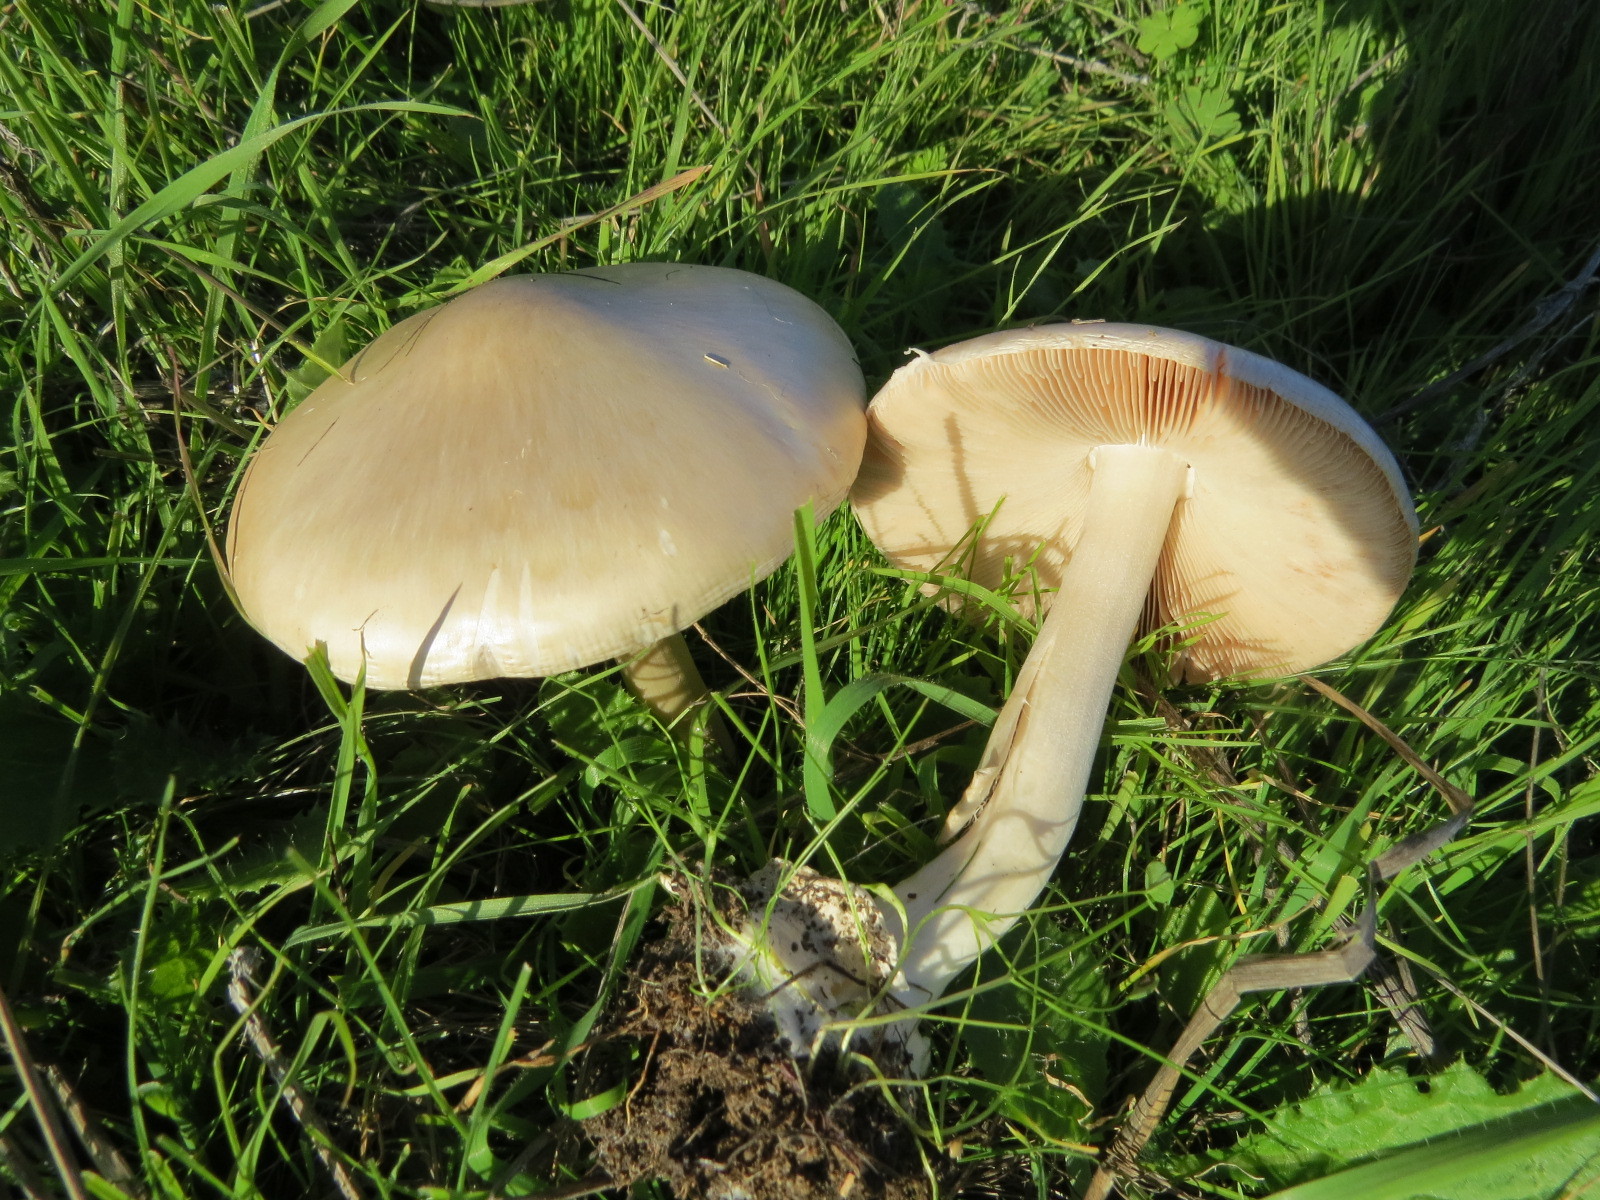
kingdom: Fungi
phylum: Basidiomycota
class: Agaricomycetes
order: Agaricales
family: Pluteaceae
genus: Volvopluteus
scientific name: Volvopluteus gloiocephalus
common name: Stubble rosegill
